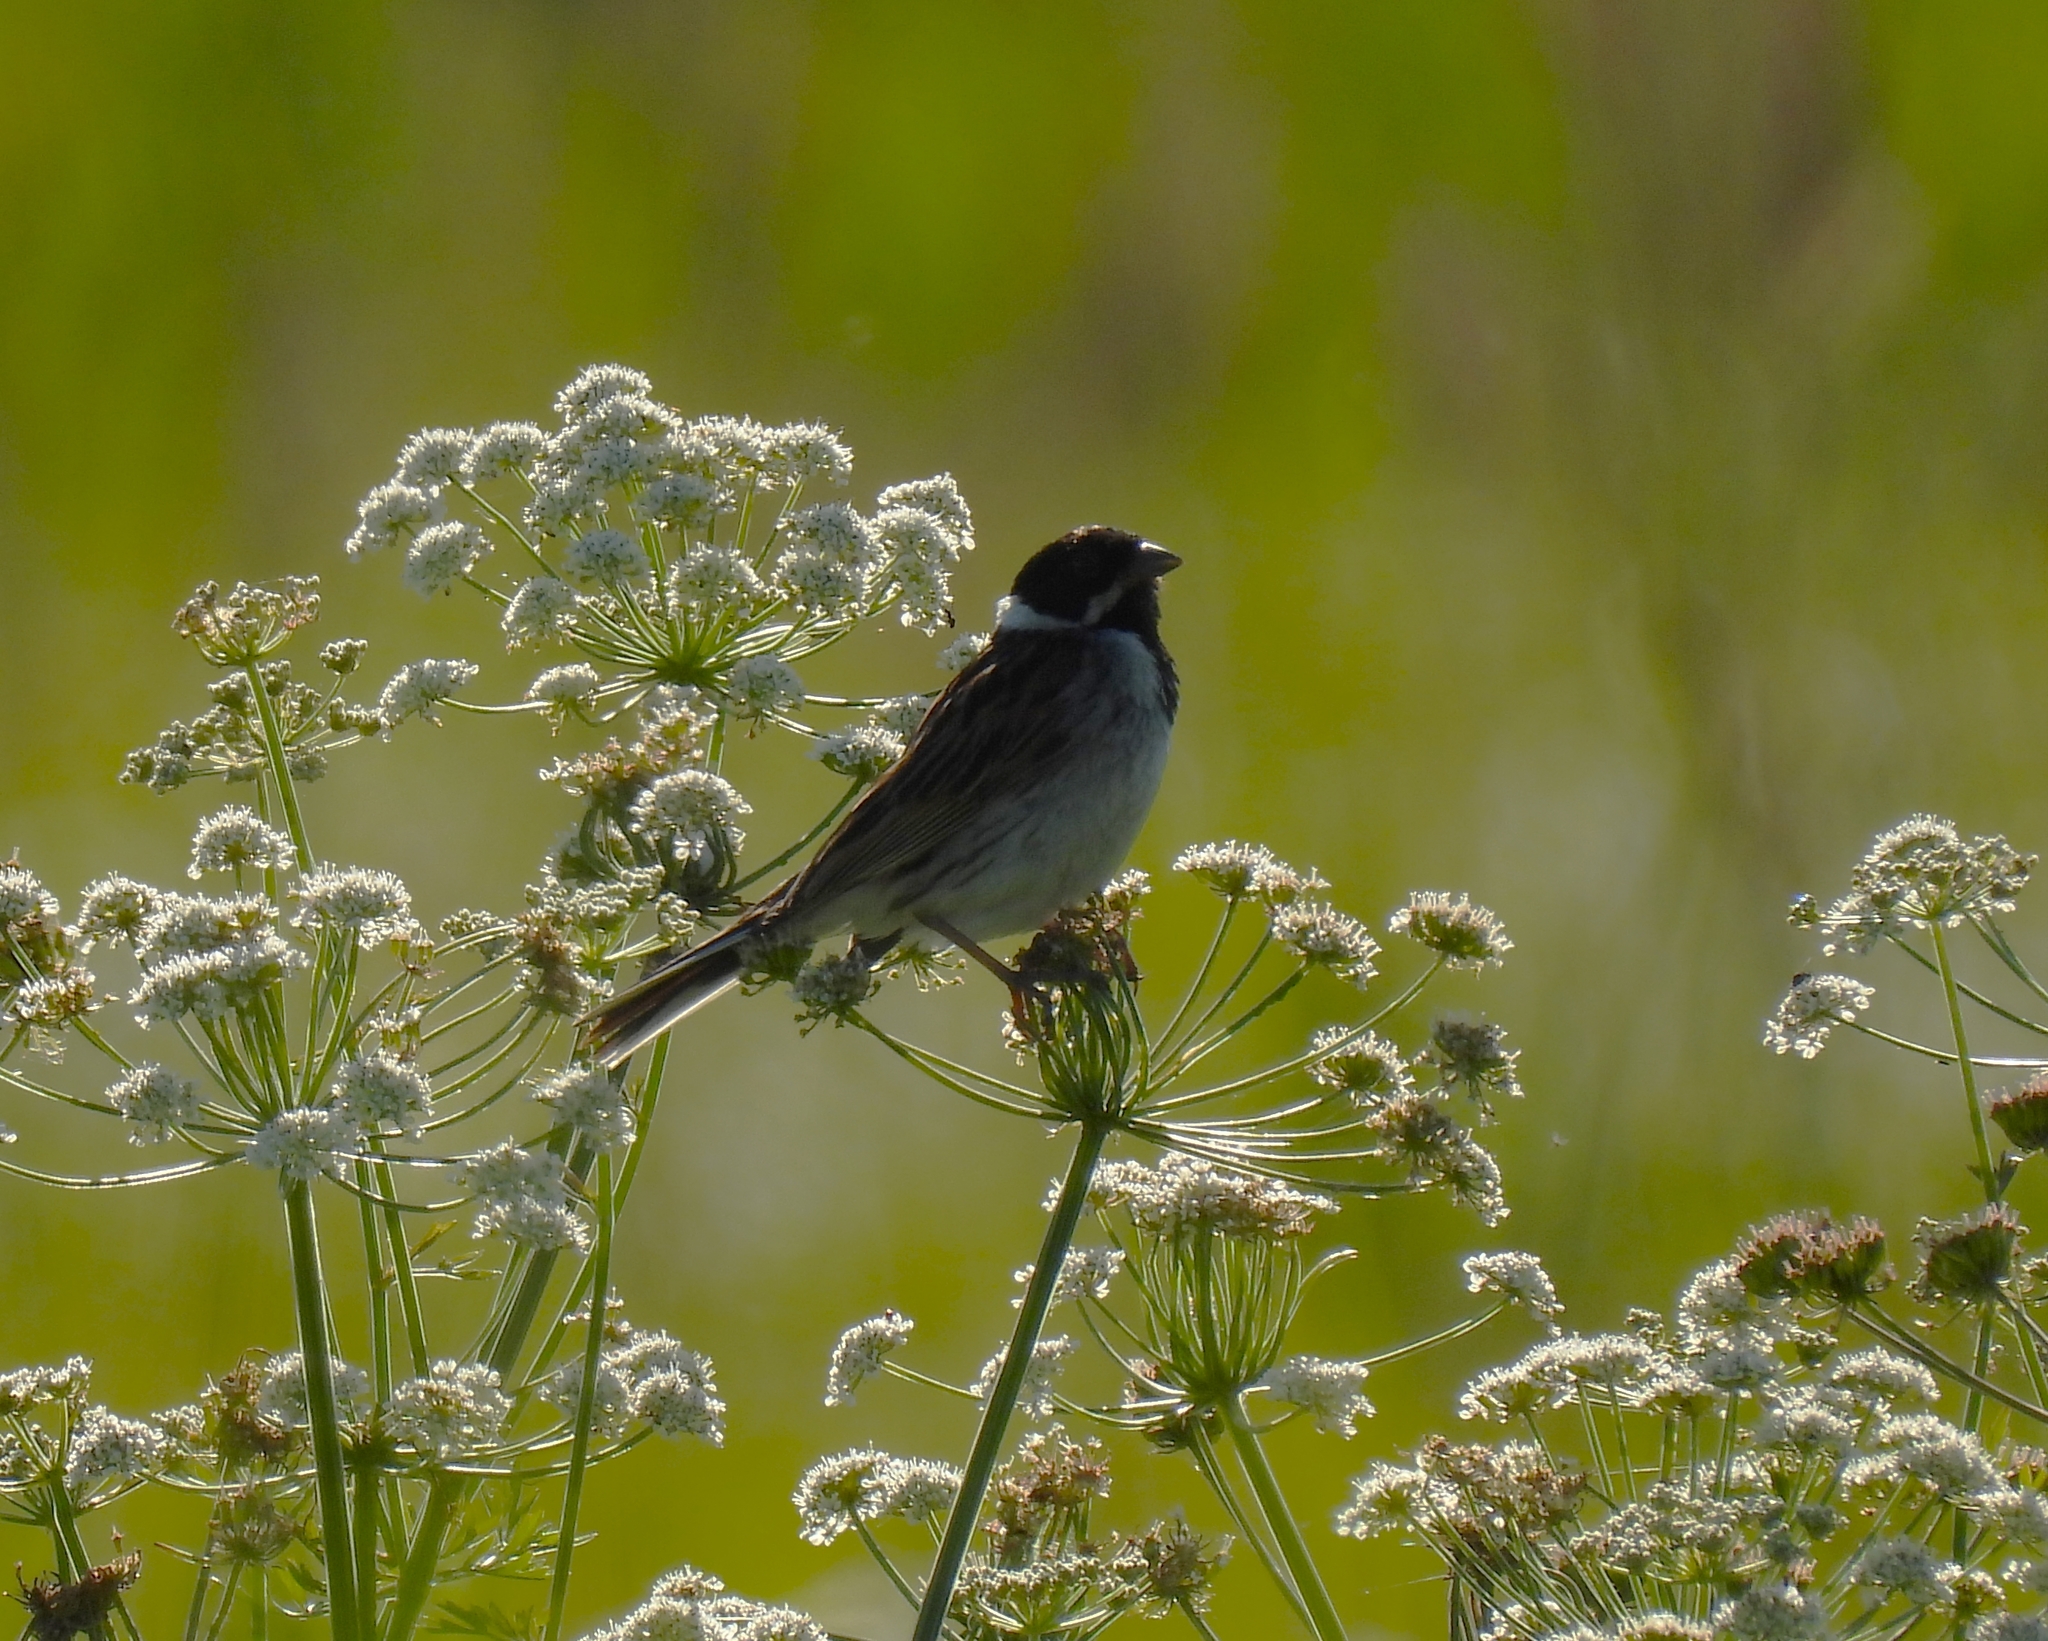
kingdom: Animalia
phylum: Chordata
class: Aves
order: Passeriformes
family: Emberizidae
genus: Emberiza
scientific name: Emberiza schoeniclus
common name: Reed bunting
